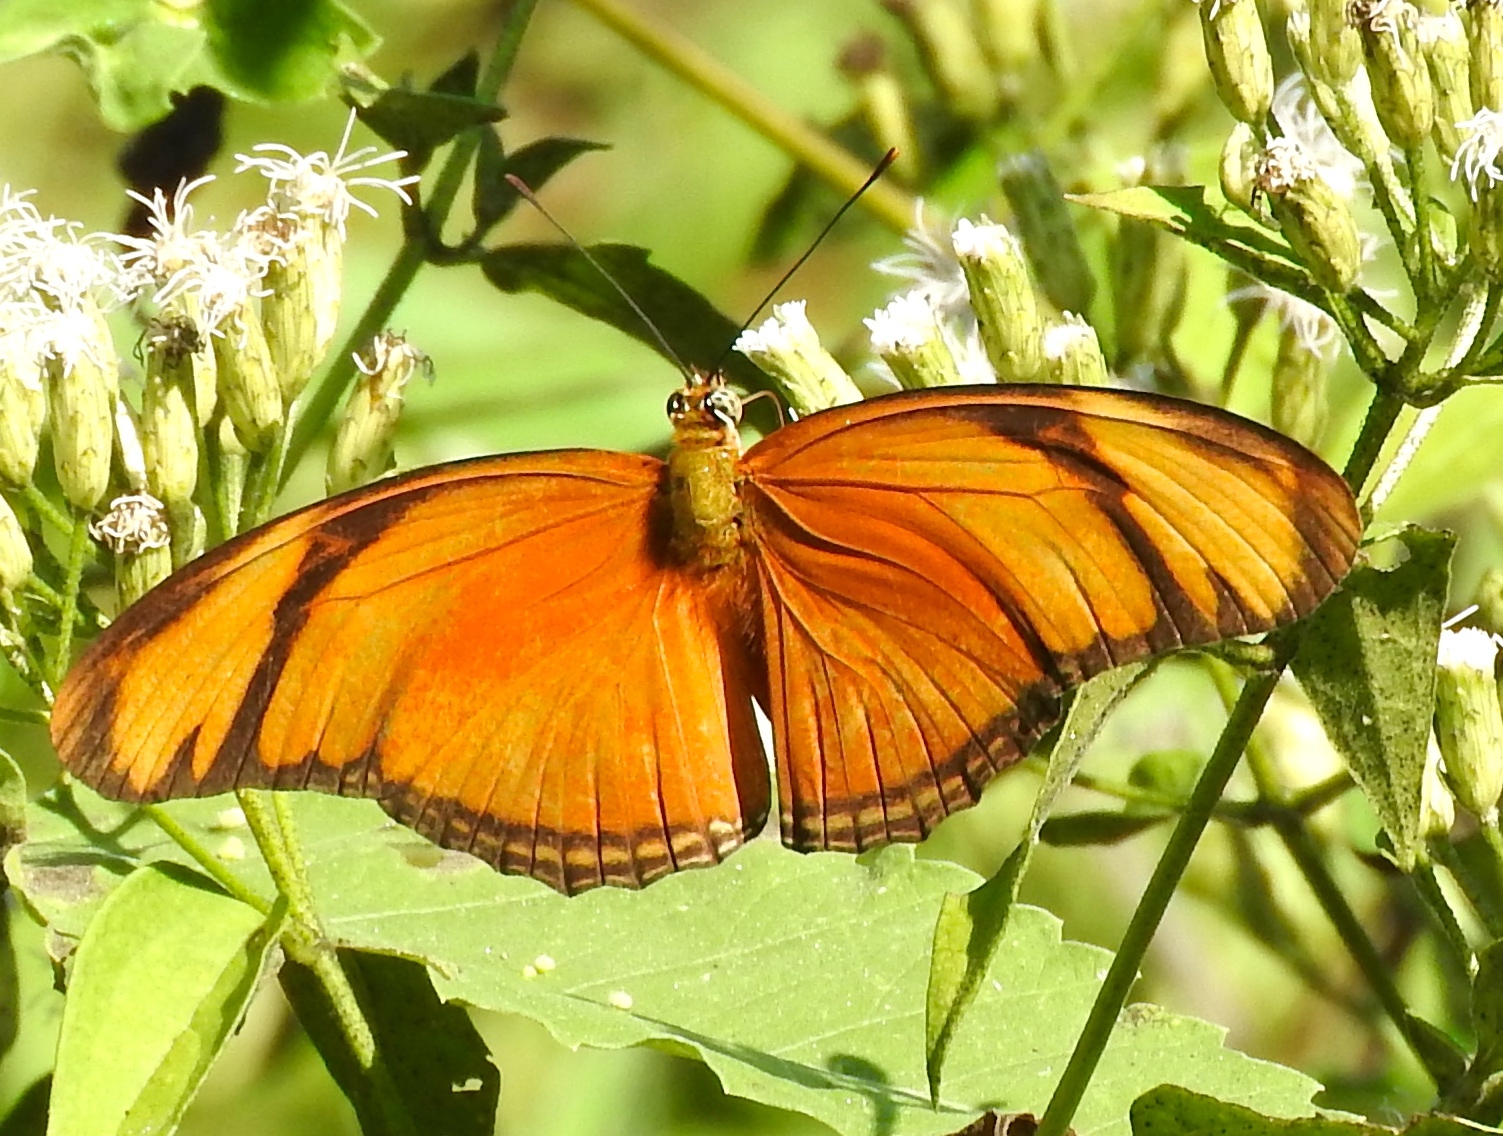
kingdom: Animalia
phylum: Arthropoda
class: Insecta
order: Lepidoptera
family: Nymphalidae
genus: Dryas
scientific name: Dryas iulia
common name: Flambeau
